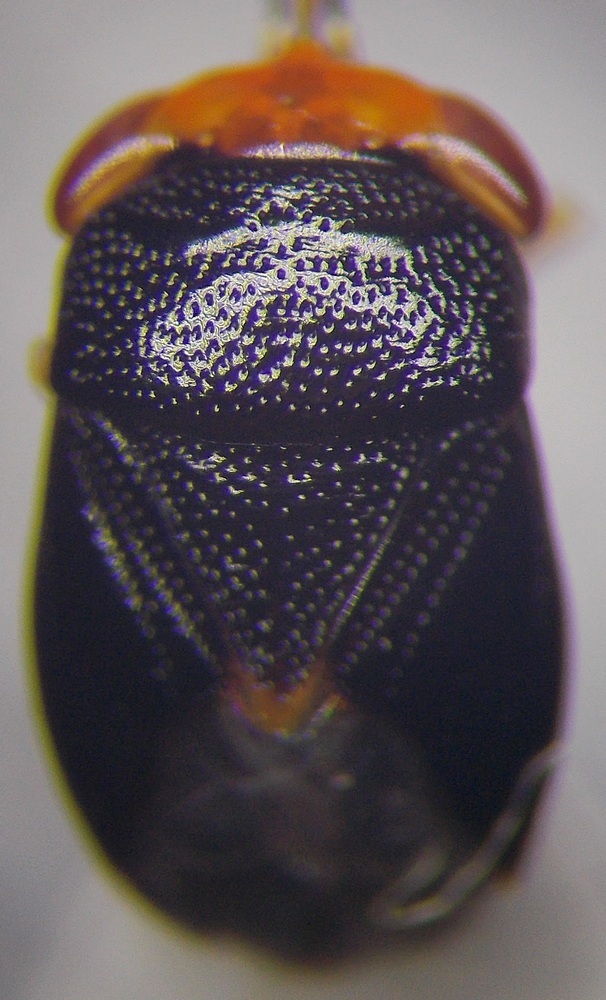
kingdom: Animalia
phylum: Arthropoda
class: Insecta
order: Hemiptera
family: Geocoridae
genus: Geocoris
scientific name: Geocoris erythrocephala
